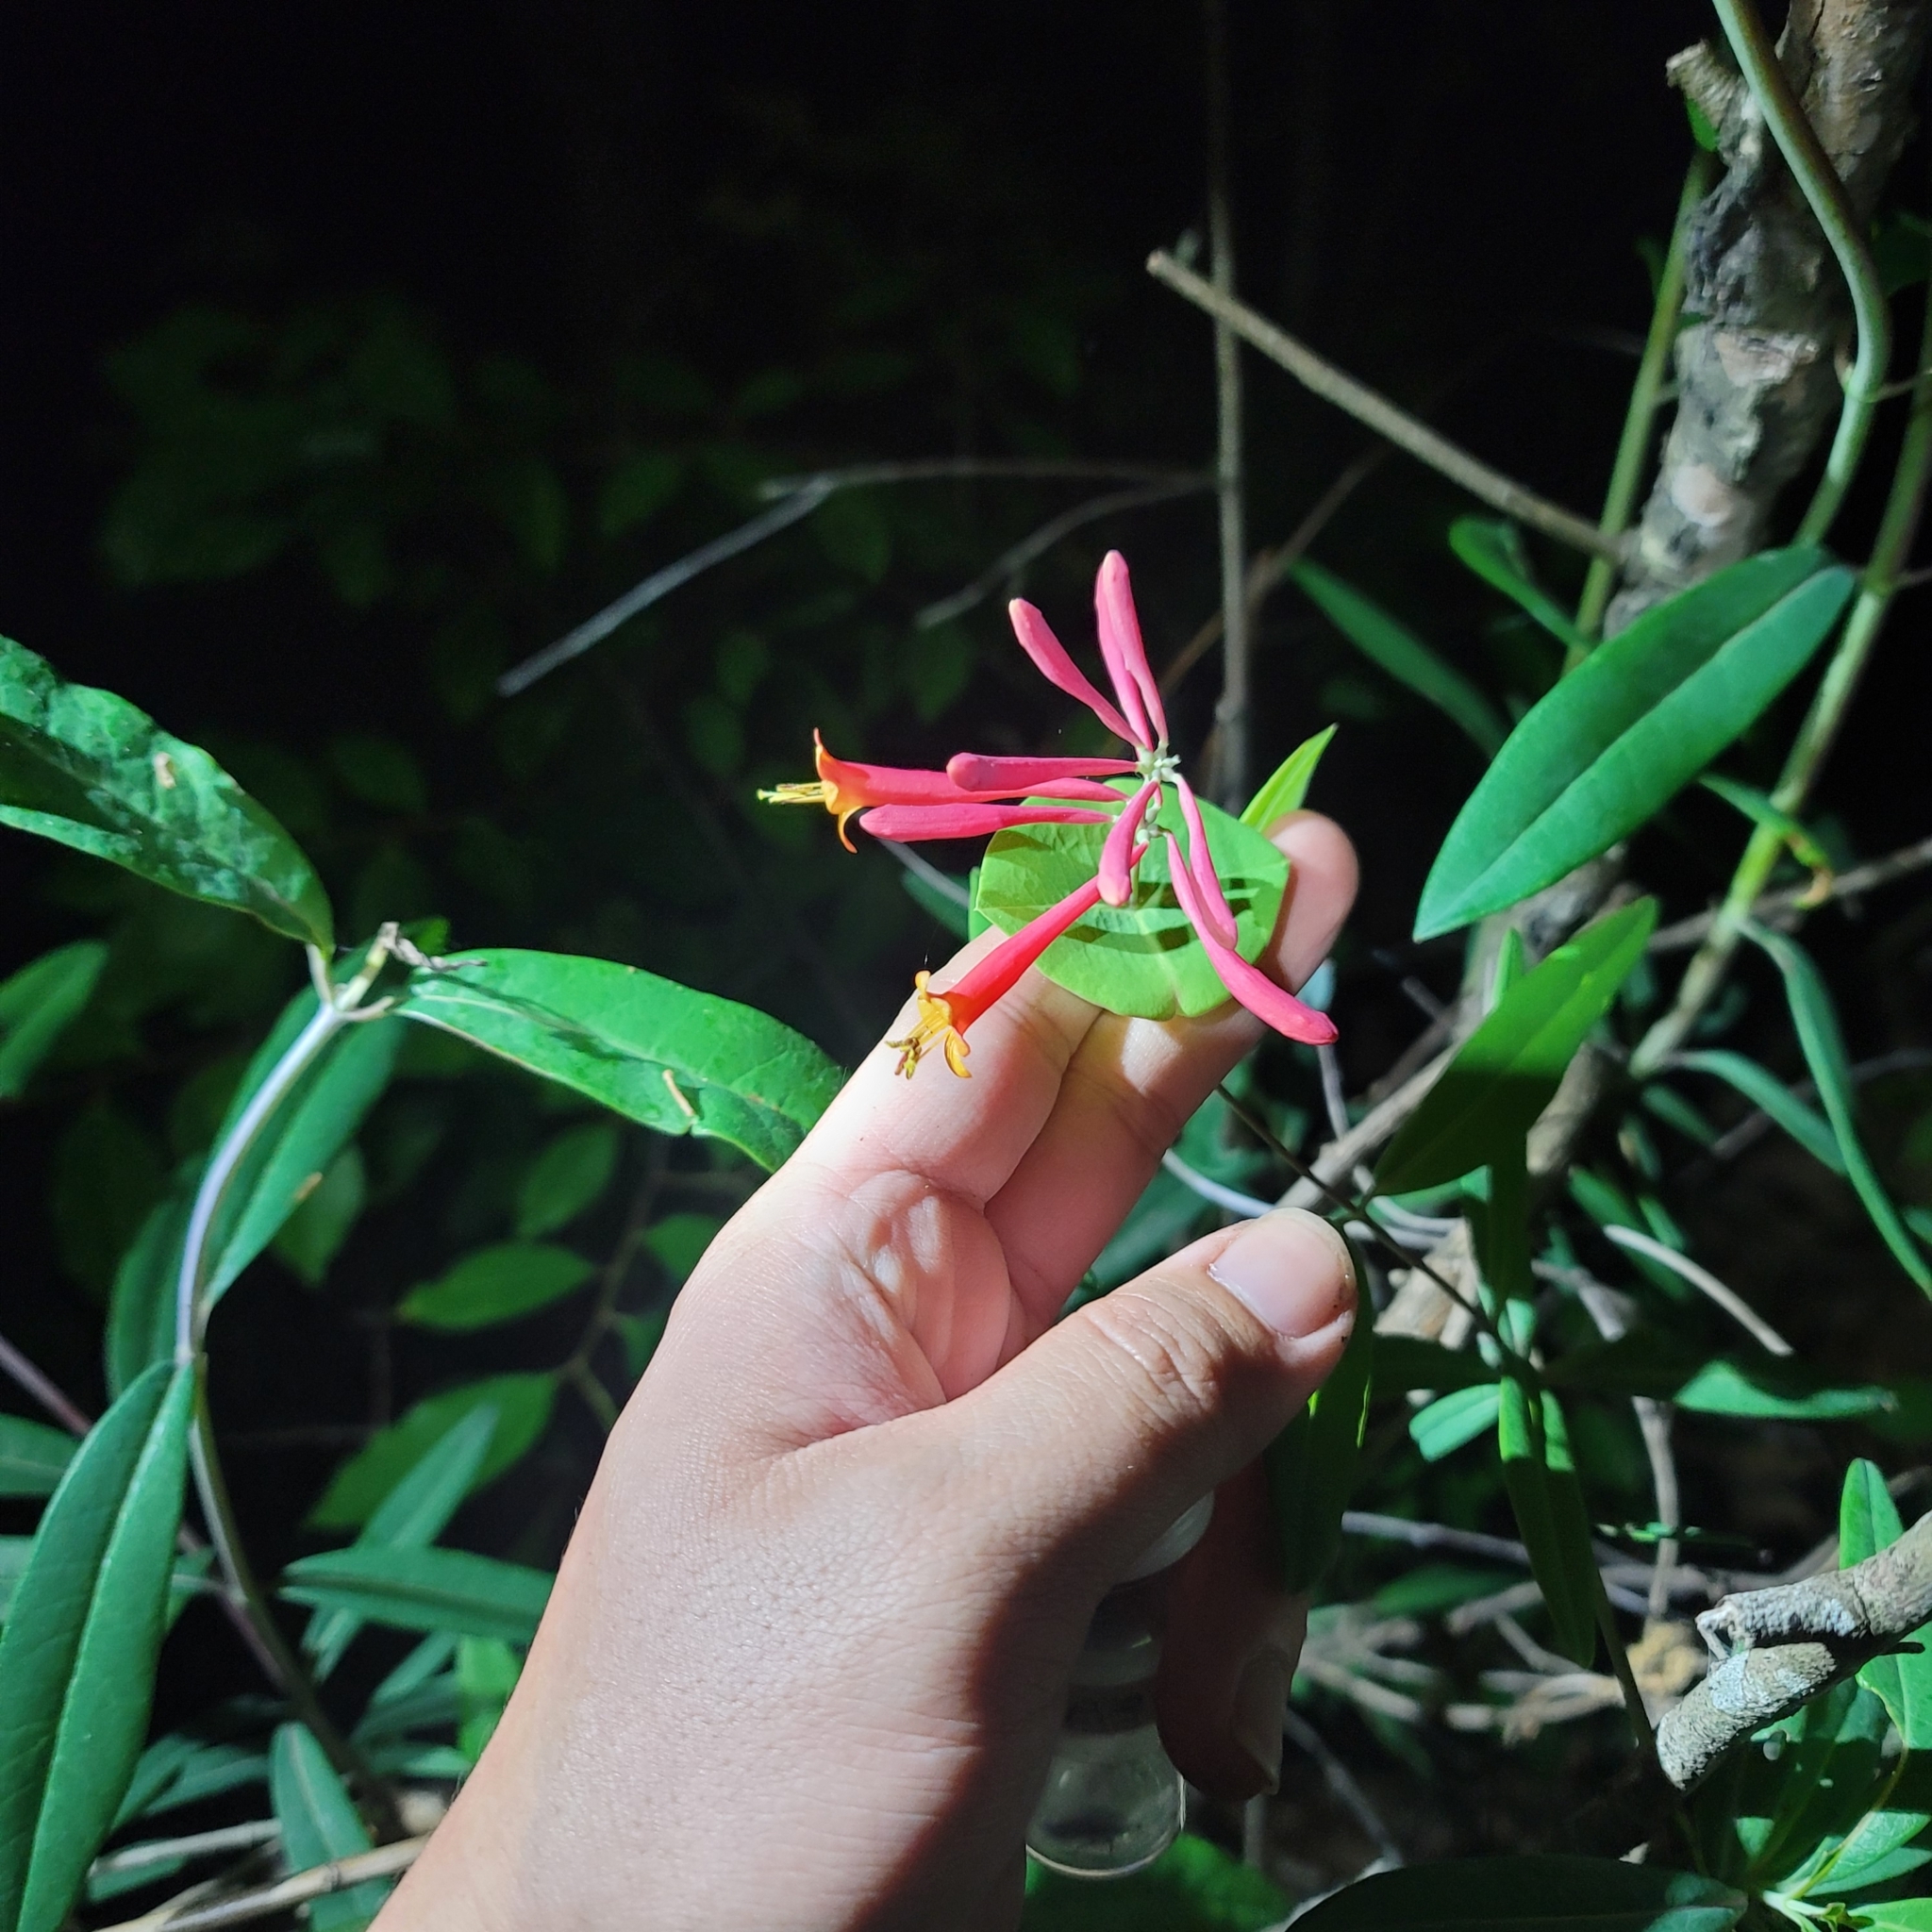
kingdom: Plantae
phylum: Tracheophyta
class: Magnoliopsida
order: Dipsacales
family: Caprifoliaceae
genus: Lonicera
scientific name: Lonicera sempervirens
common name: Coral honeysuckle
